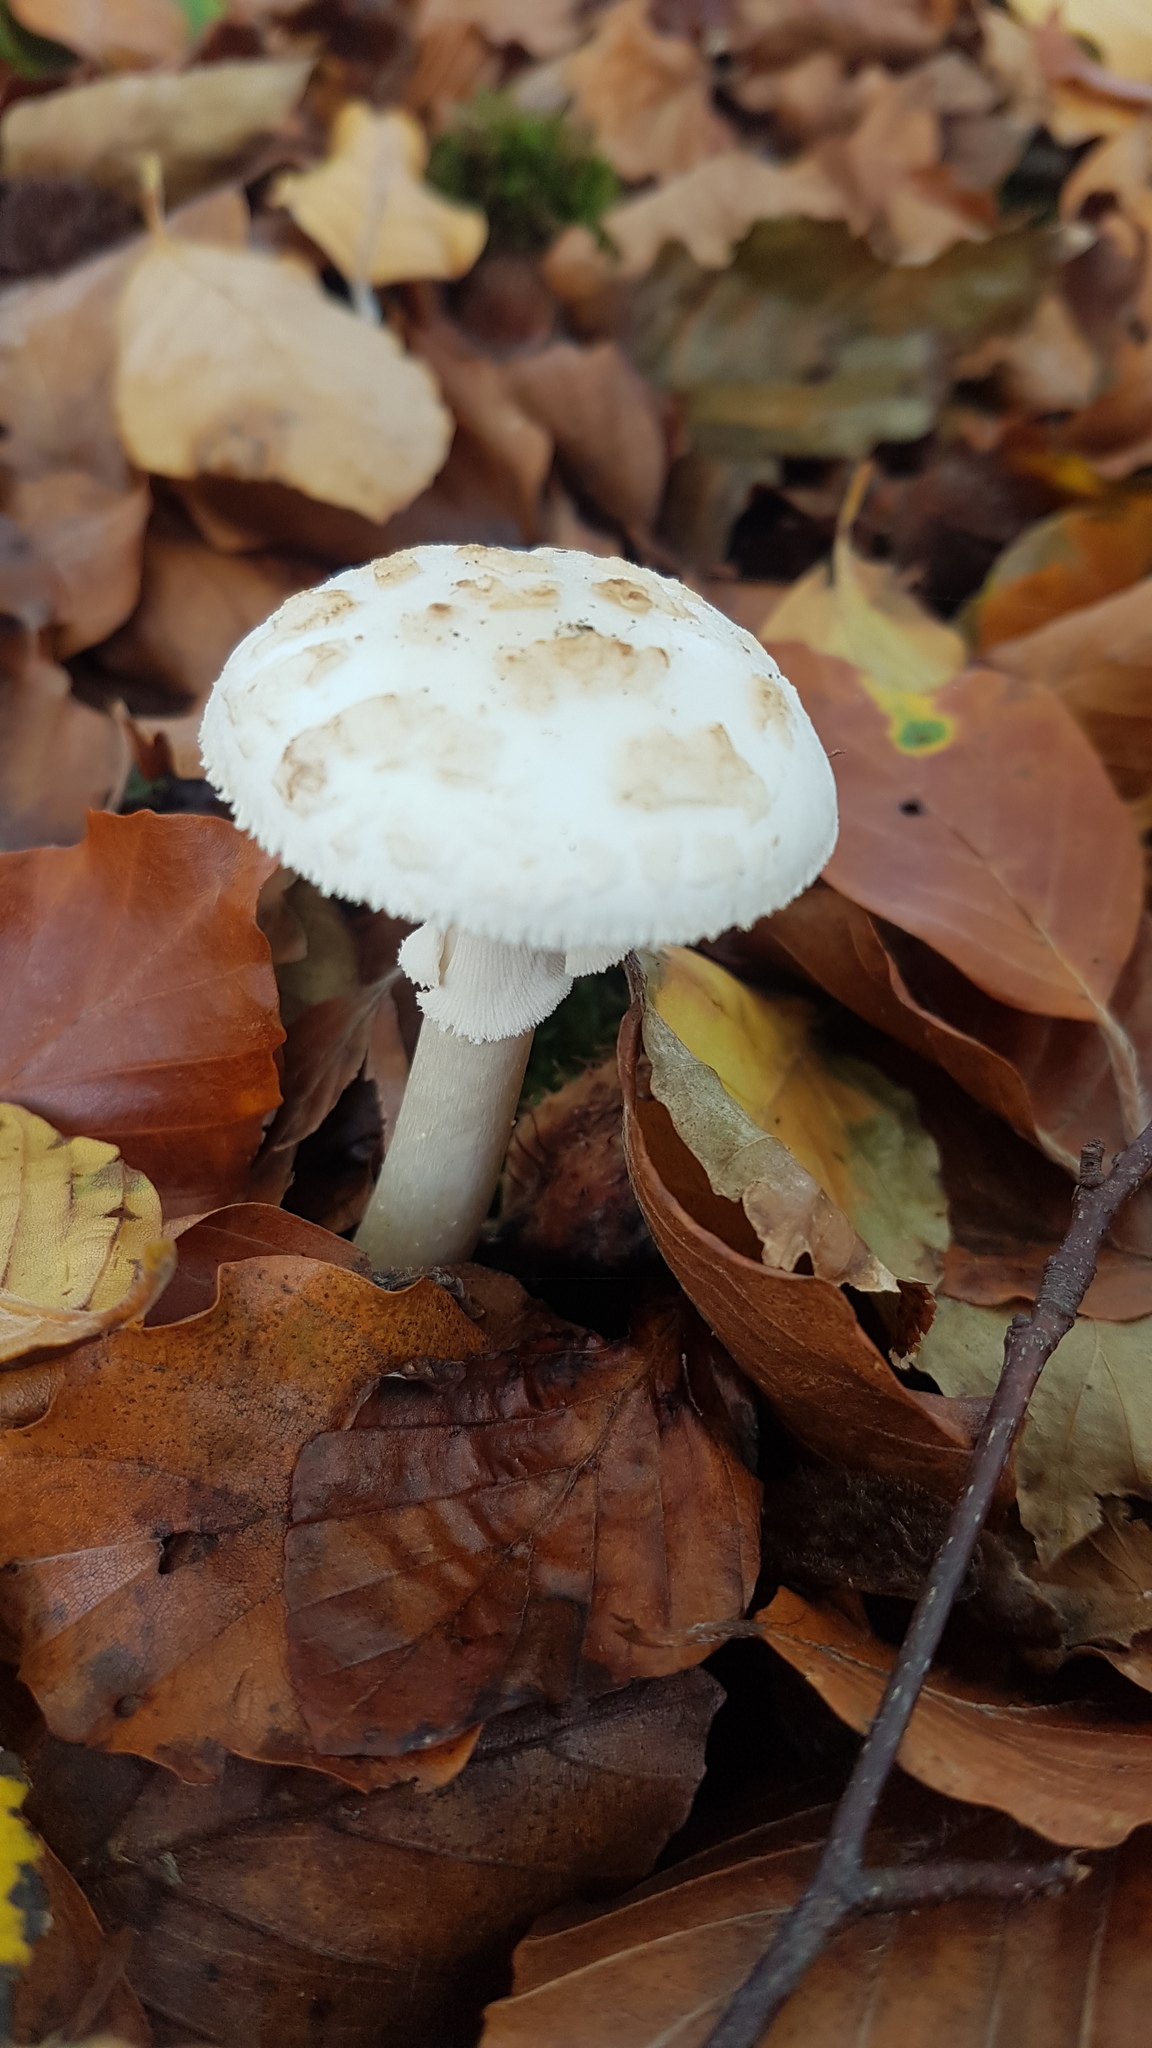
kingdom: Fungi
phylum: Basidiomycota
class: Agaricomycetes
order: Agaricales
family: Amanitaceae
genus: Amanita
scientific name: Amanita citrina
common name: False death-cap
